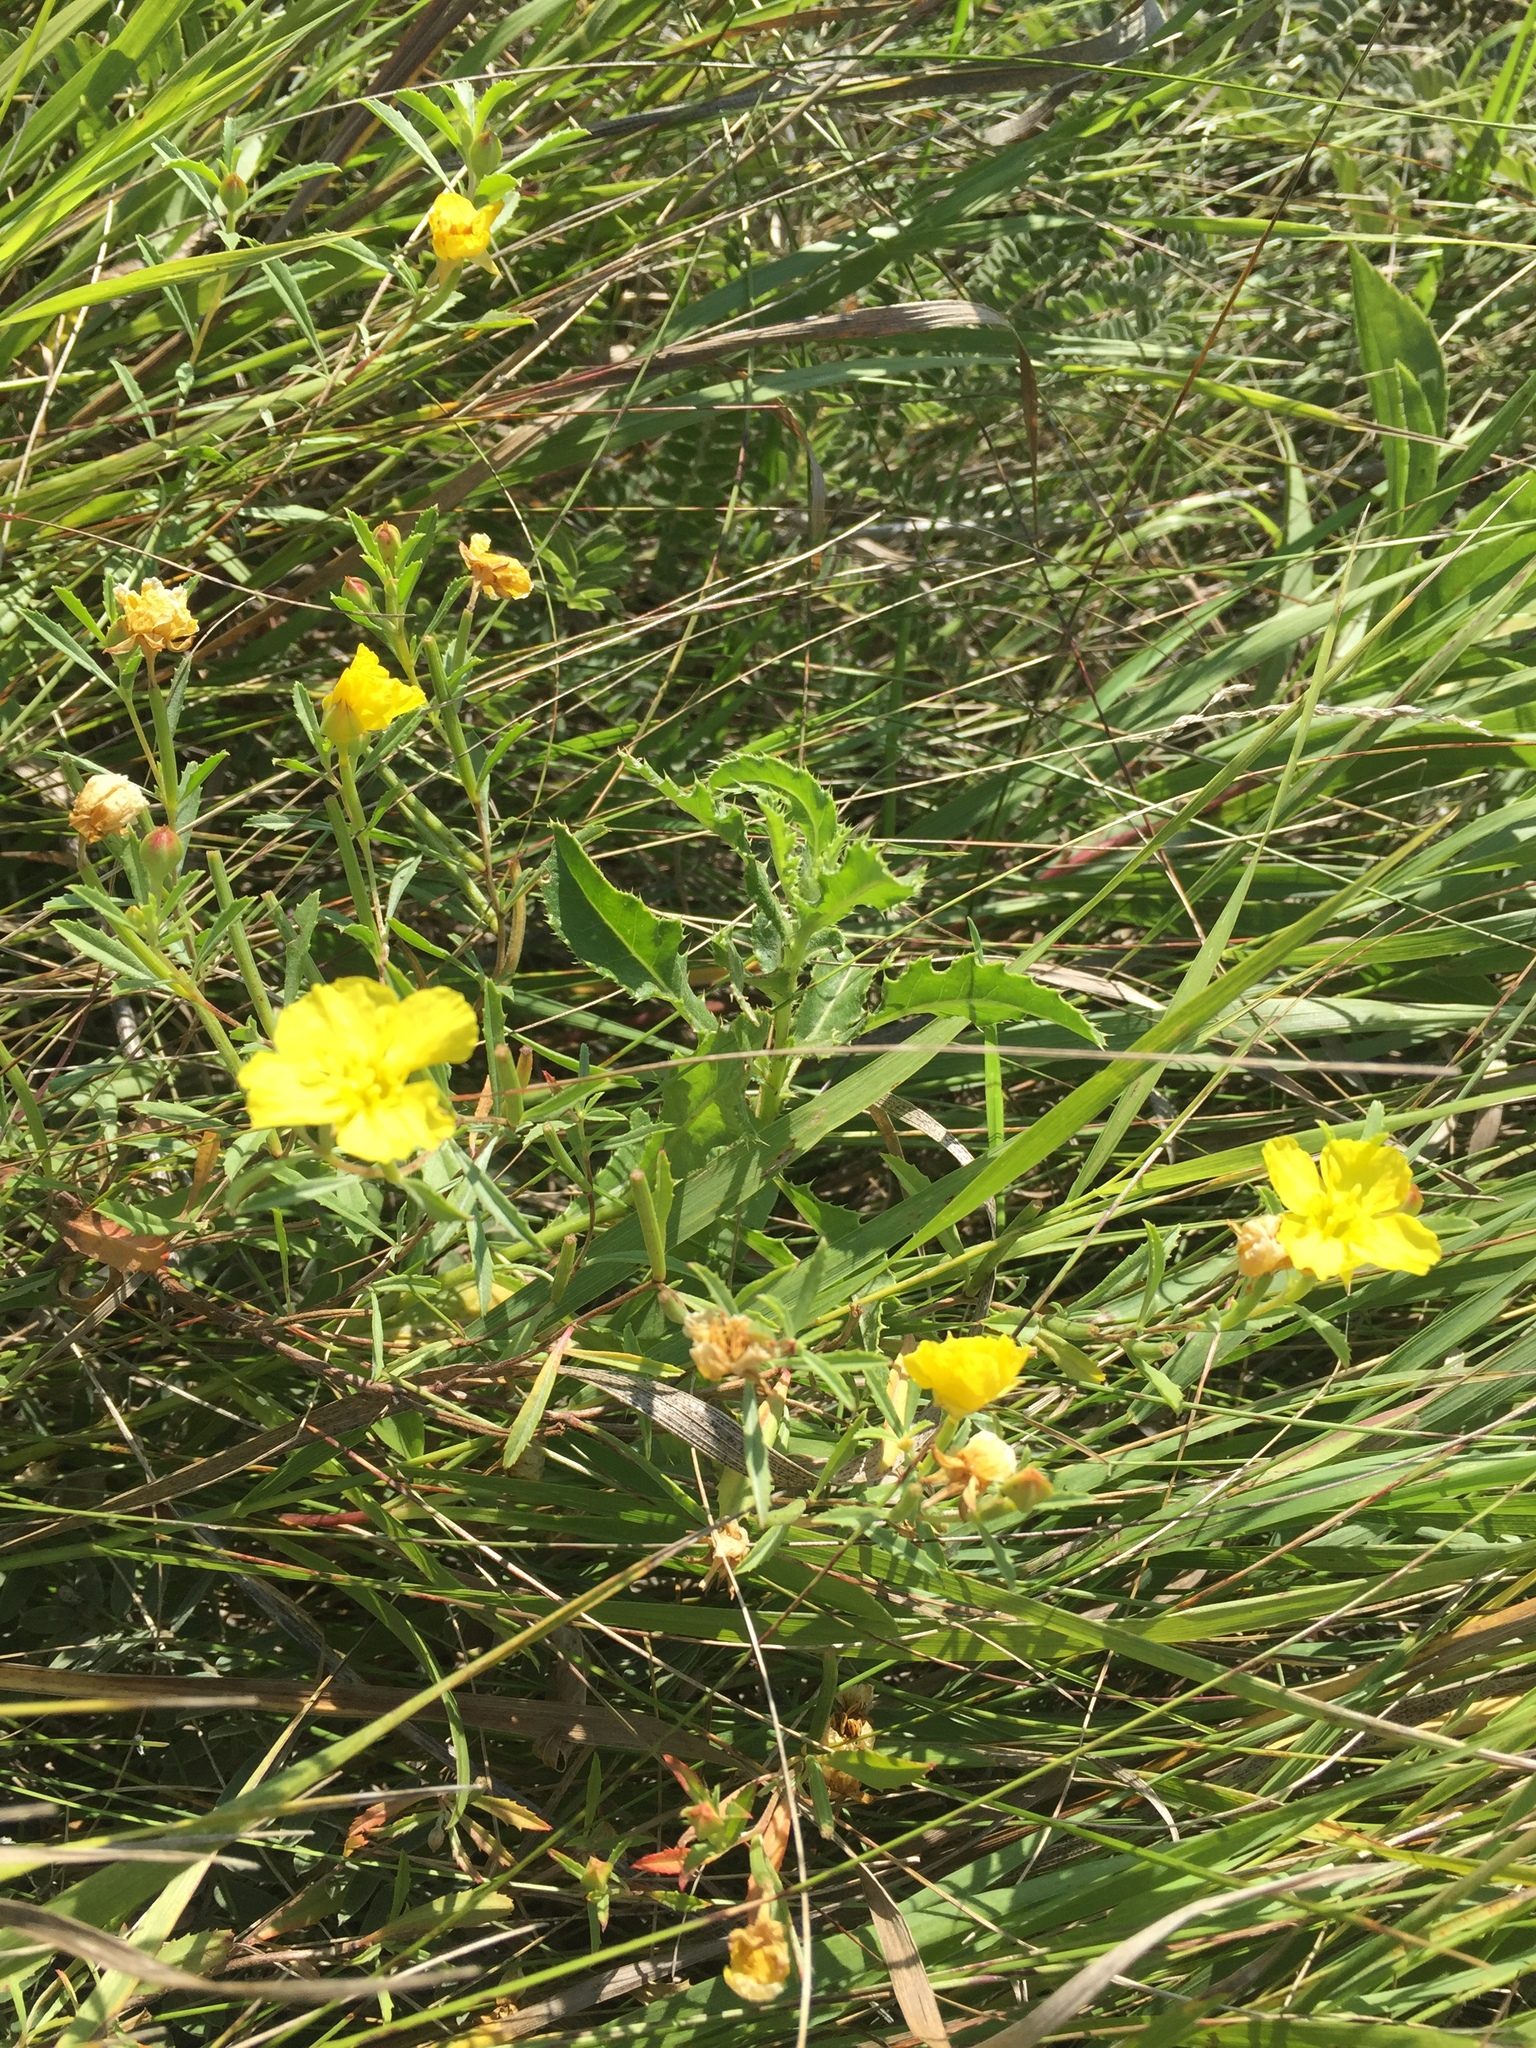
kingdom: Plantae
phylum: Tracheophyta
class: Magnoliopsida
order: Myrtales
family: Onagraceae
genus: Oenothera
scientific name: Oenothera serrulata
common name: Half-shrub calylophus
